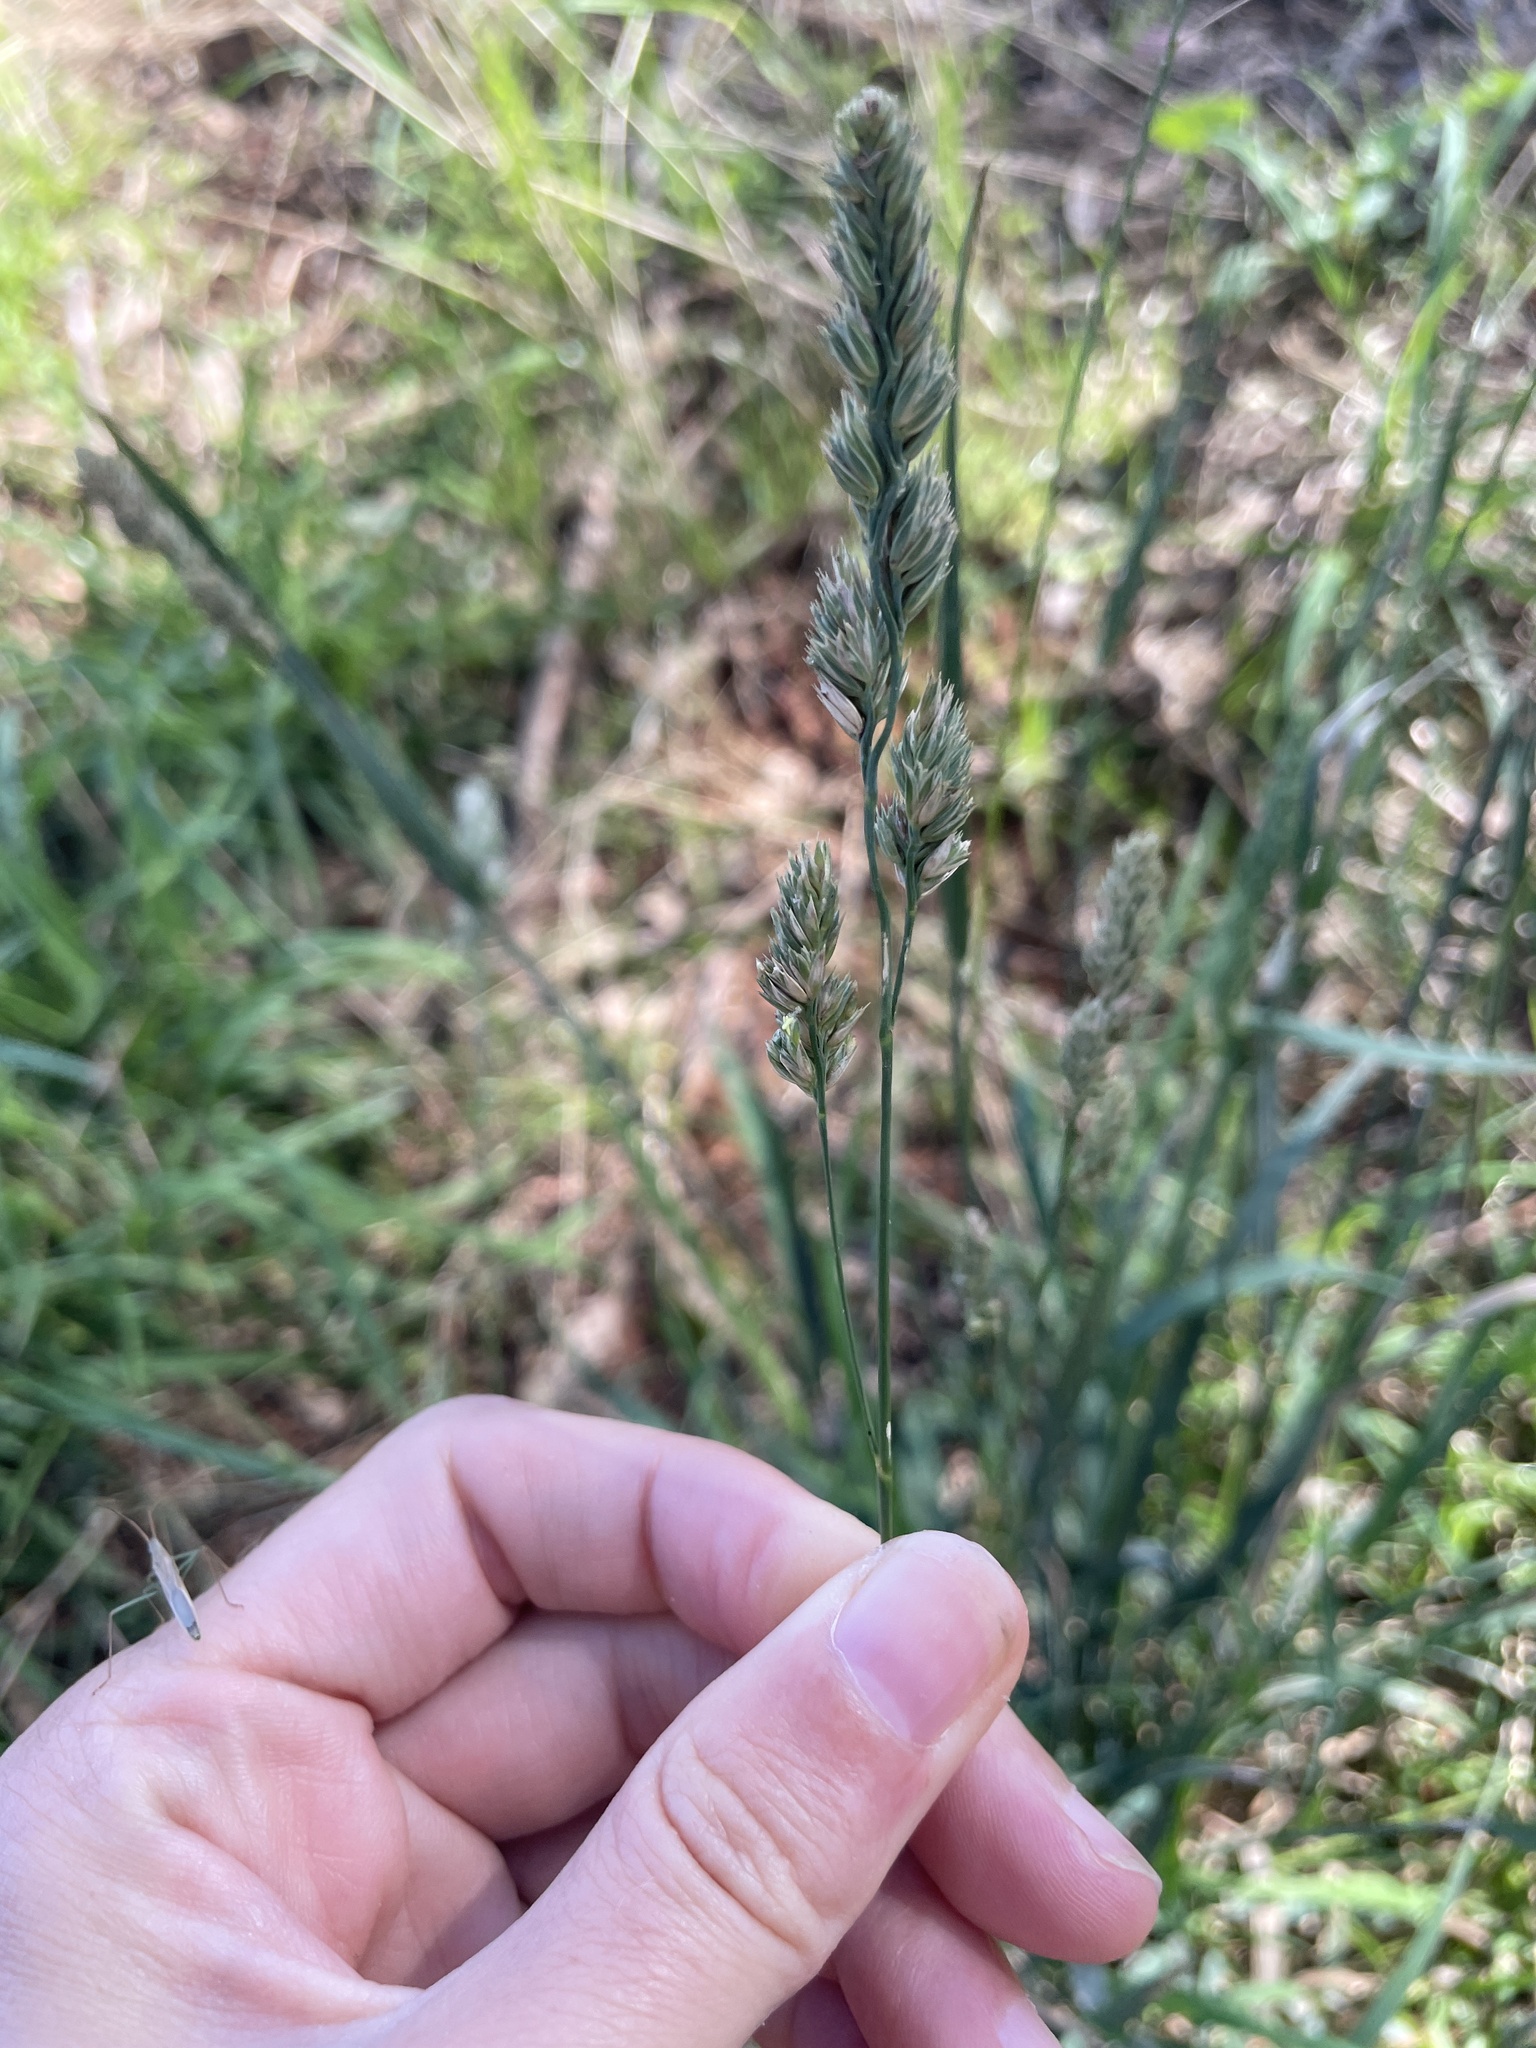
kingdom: Plantae
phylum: Tracheophyta
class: Liliopsida
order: Poales
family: Poaceae
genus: Dactylis
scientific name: Dactylis glomerata
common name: Orchardgrass
